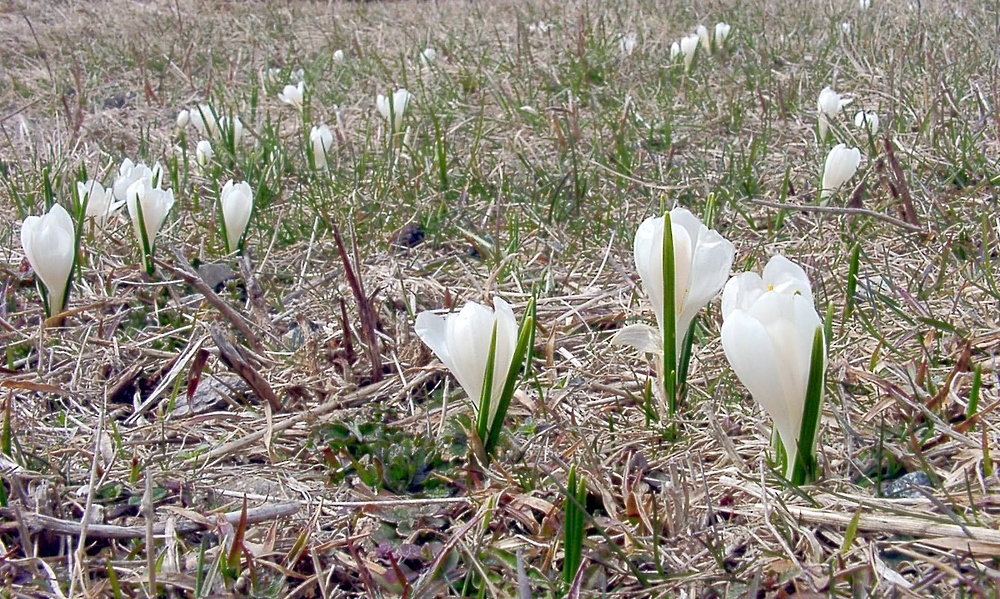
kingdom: Plantae
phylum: Tracheophyta
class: Liliopsida
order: Asparagales
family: Iridaceae
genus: Crocus
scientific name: Crocus vernus
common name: Spring crocus
